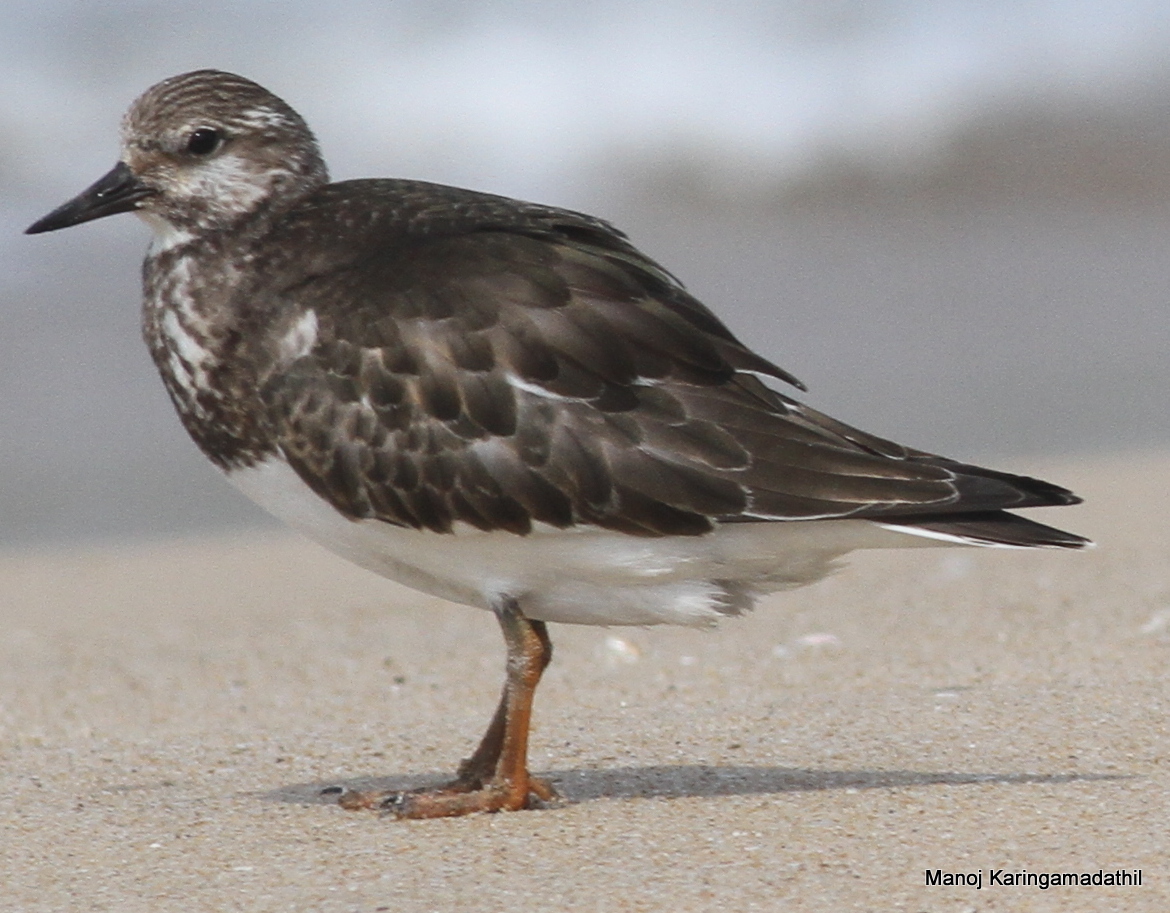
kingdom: Animalia
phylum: Chordata
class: Aves
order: Charadriiformes
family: Scolopacidae
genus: Arenaria
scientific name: Arenaria interpres
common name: Ruddy turnstone
